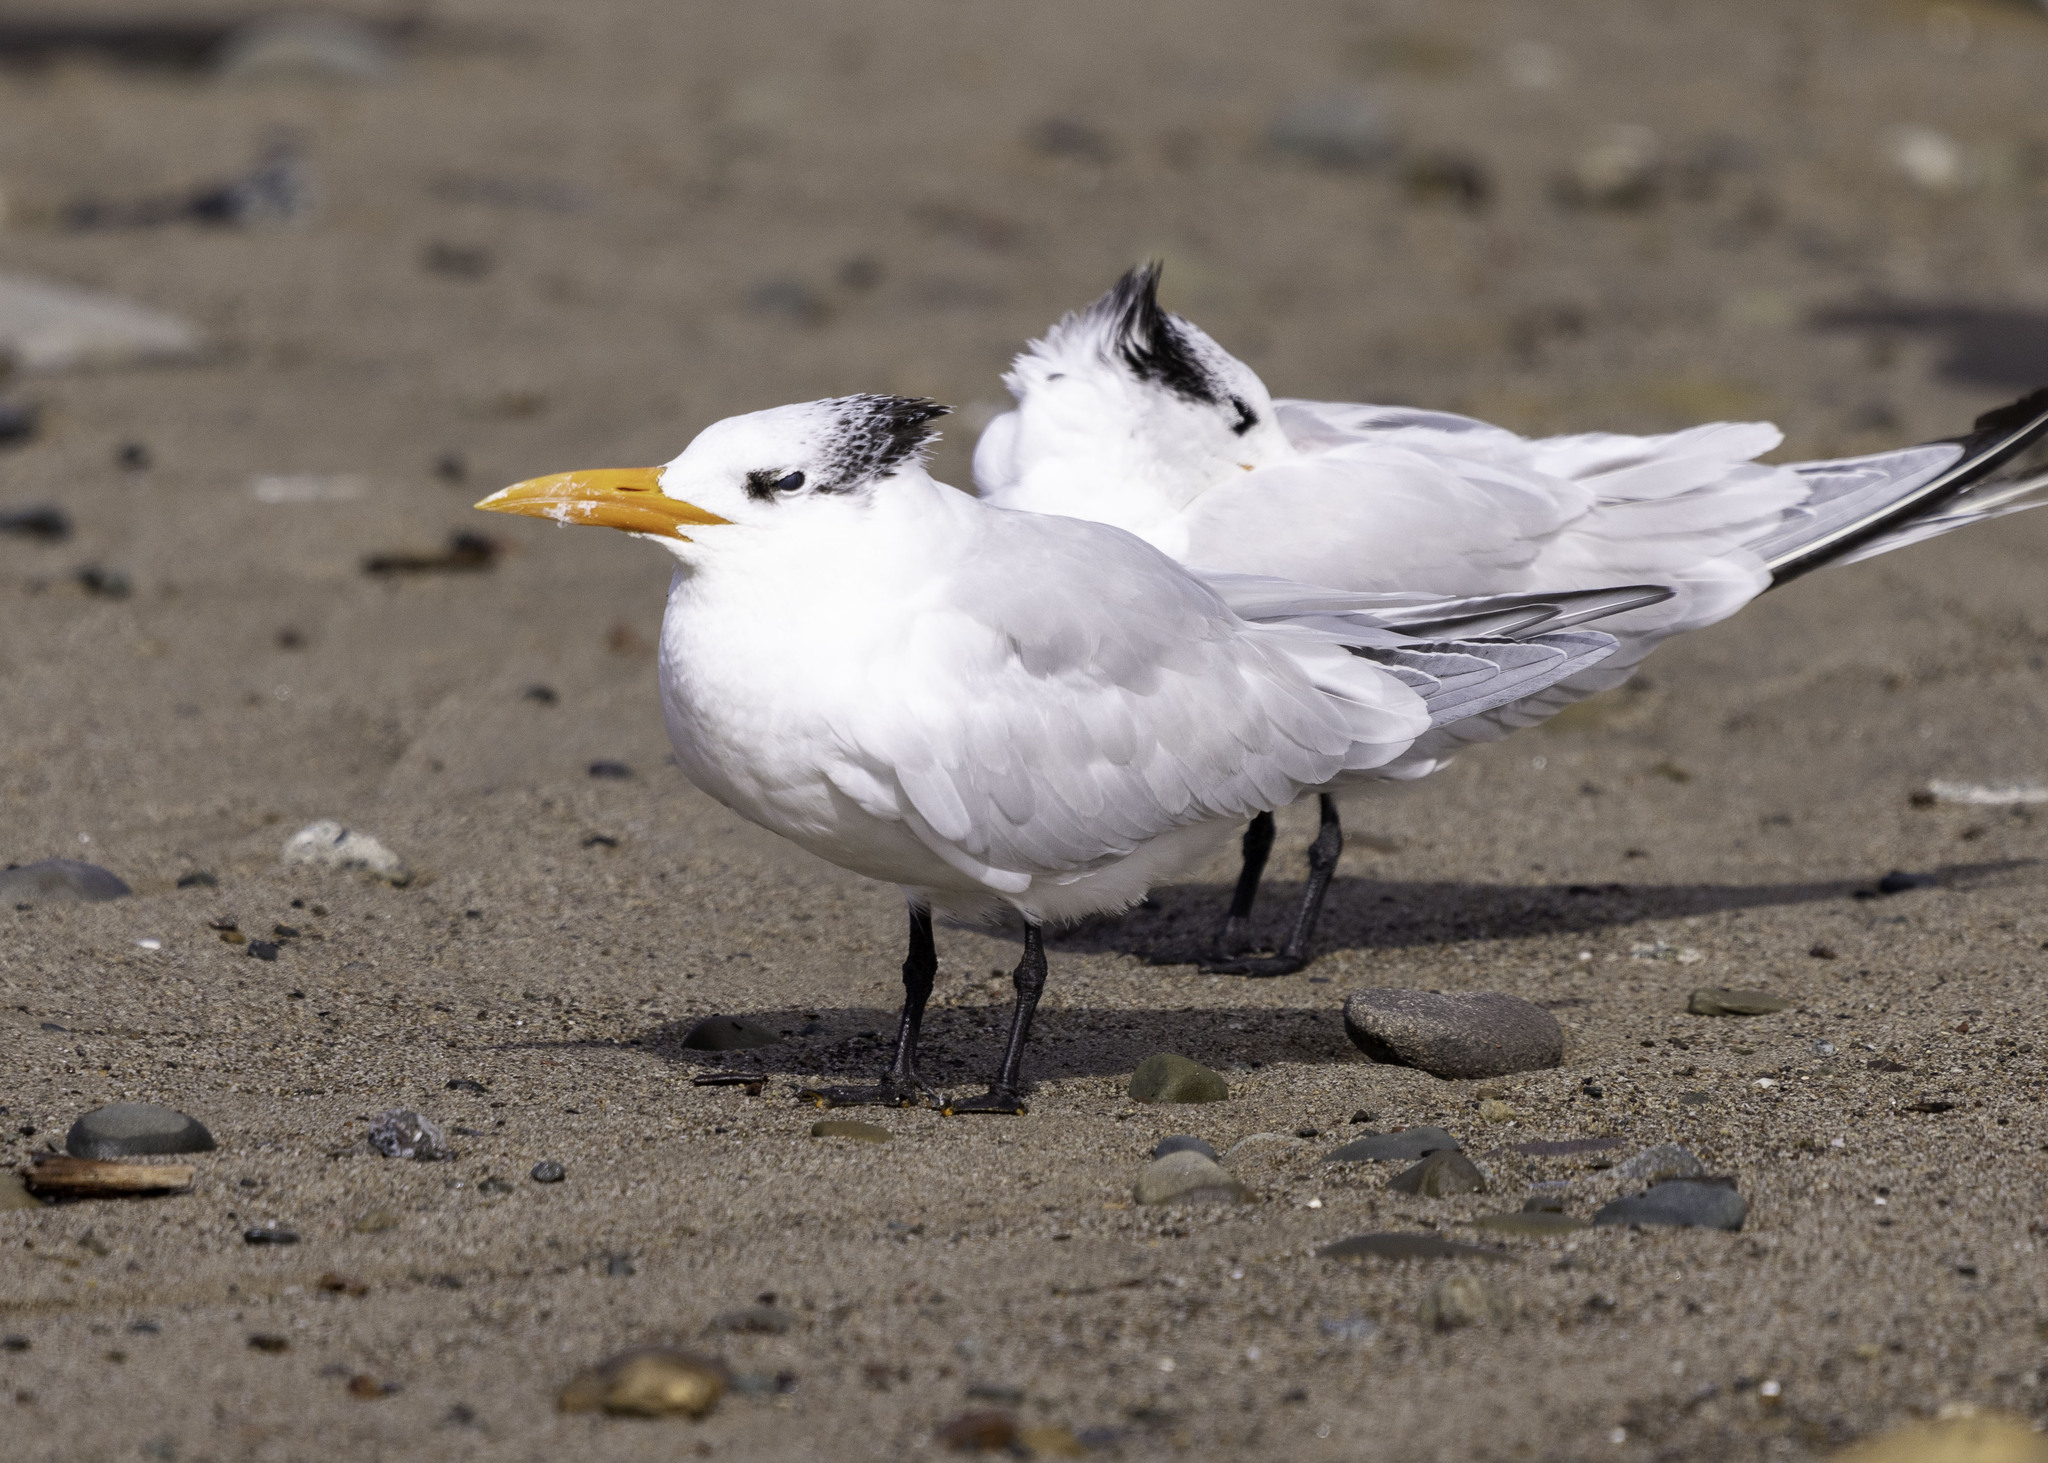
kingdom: Animalia
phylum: Chordata
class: Aves
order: Charadriiformes
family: Laridae
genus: Thalasseus
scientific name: Thalasseus maximus
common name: Royal tern
